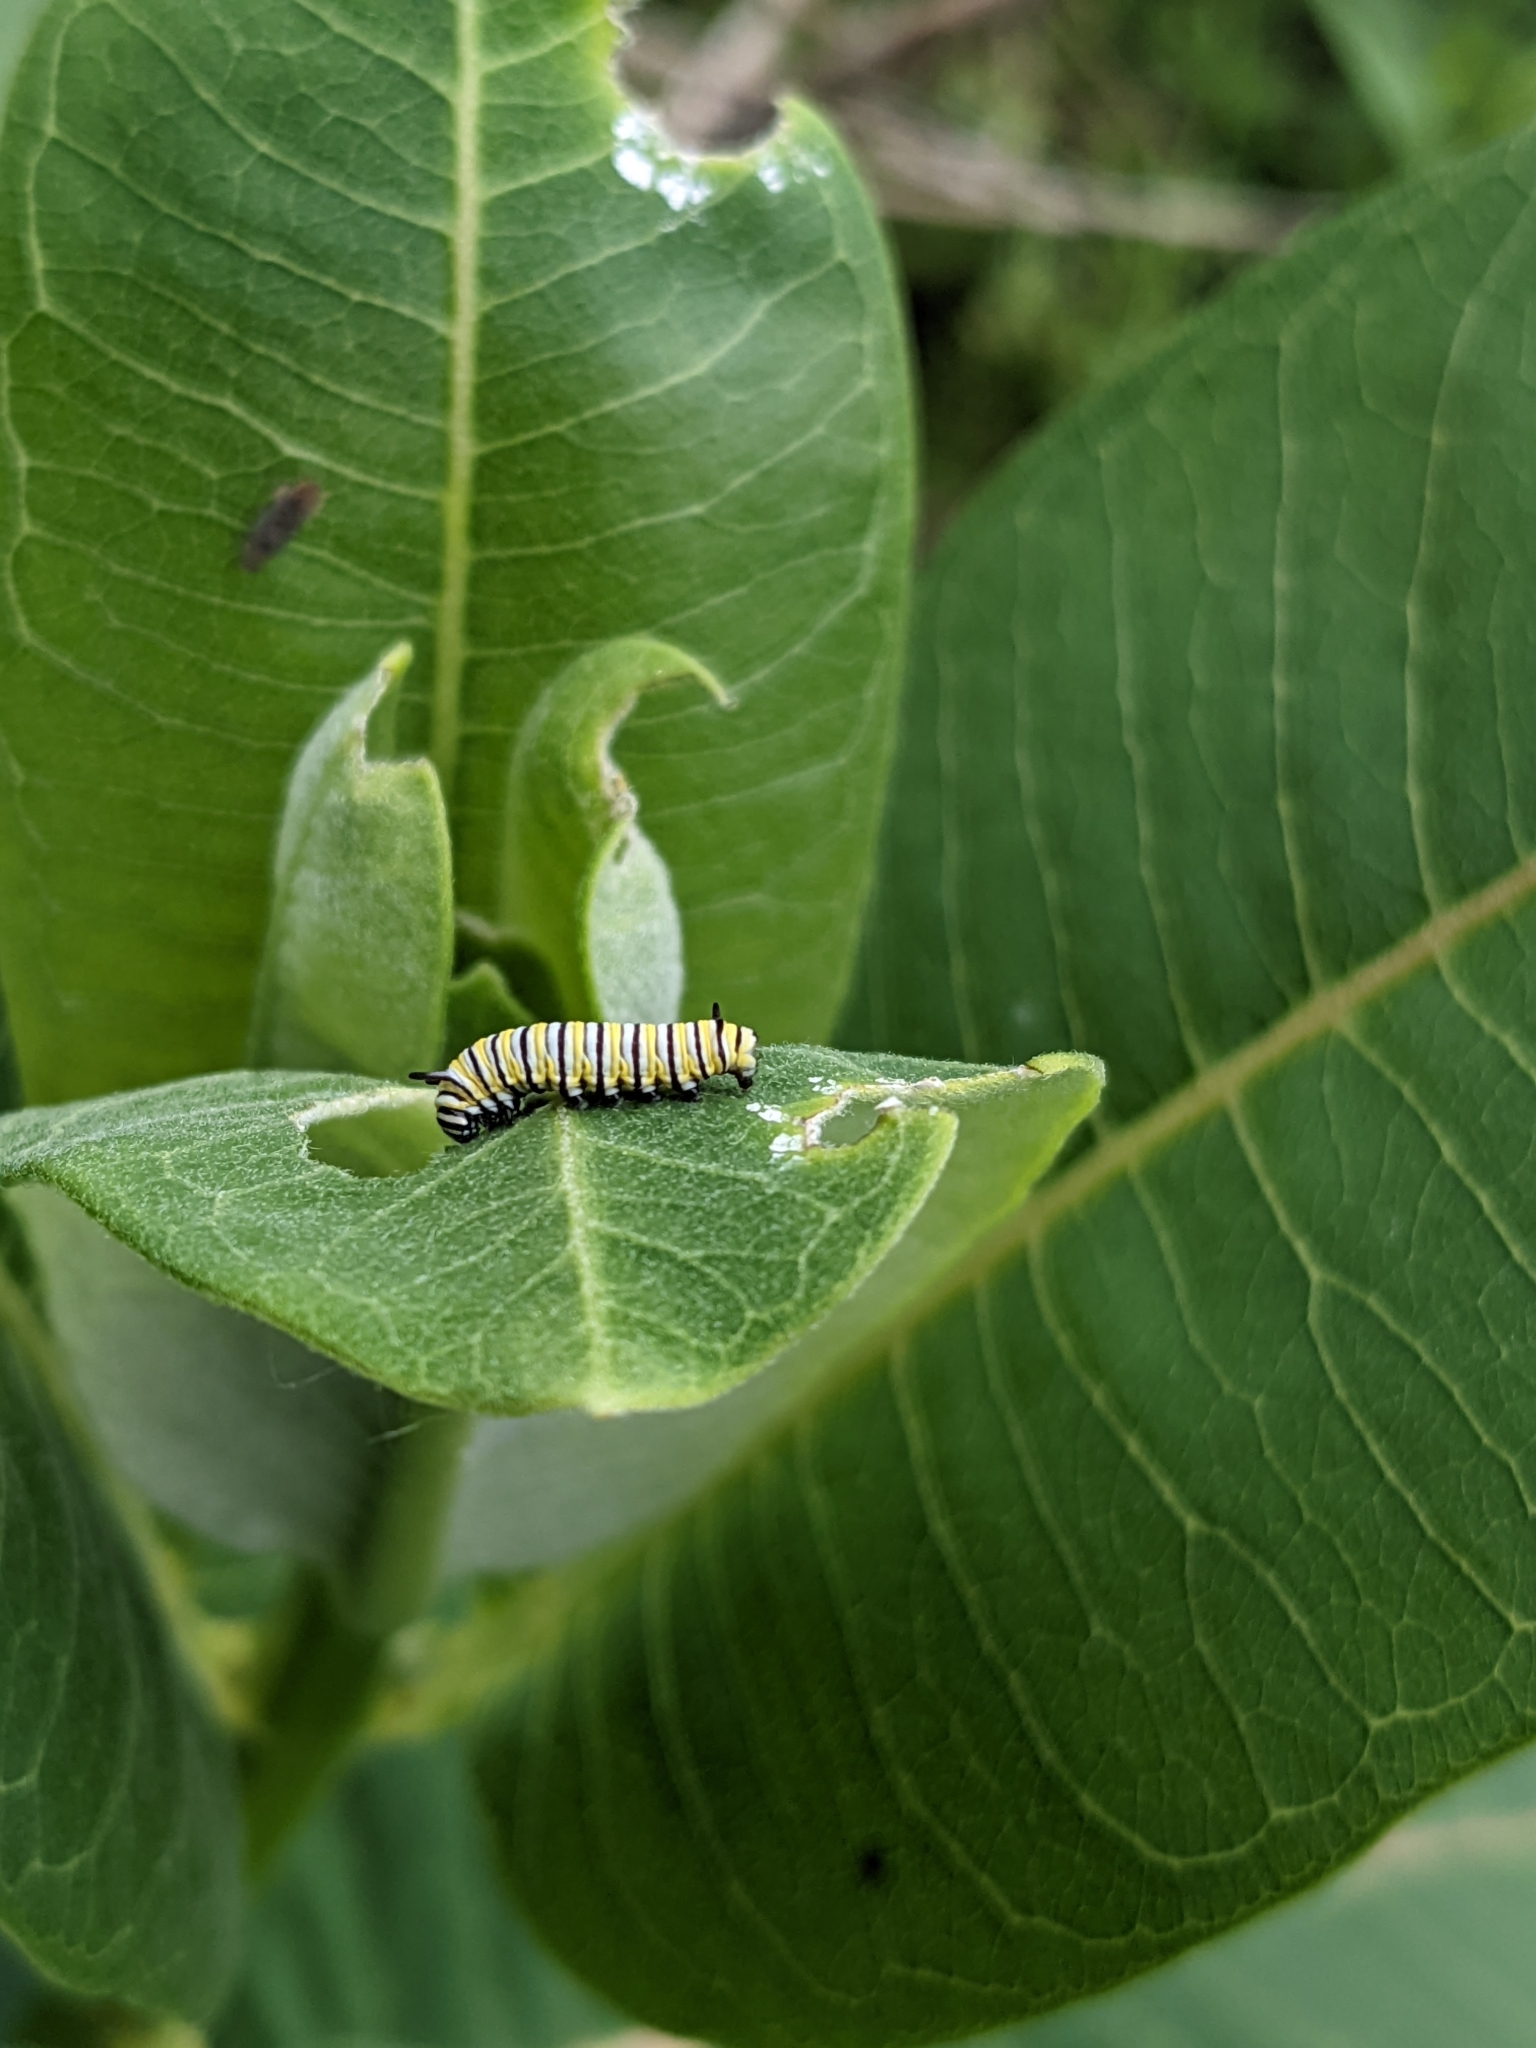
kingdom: Animalia
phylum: Arthropoda
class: Insecta
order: Lepidoptera
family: Nymphalidae
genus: Danaus
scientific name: Danaus plexippus
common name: Monarch
